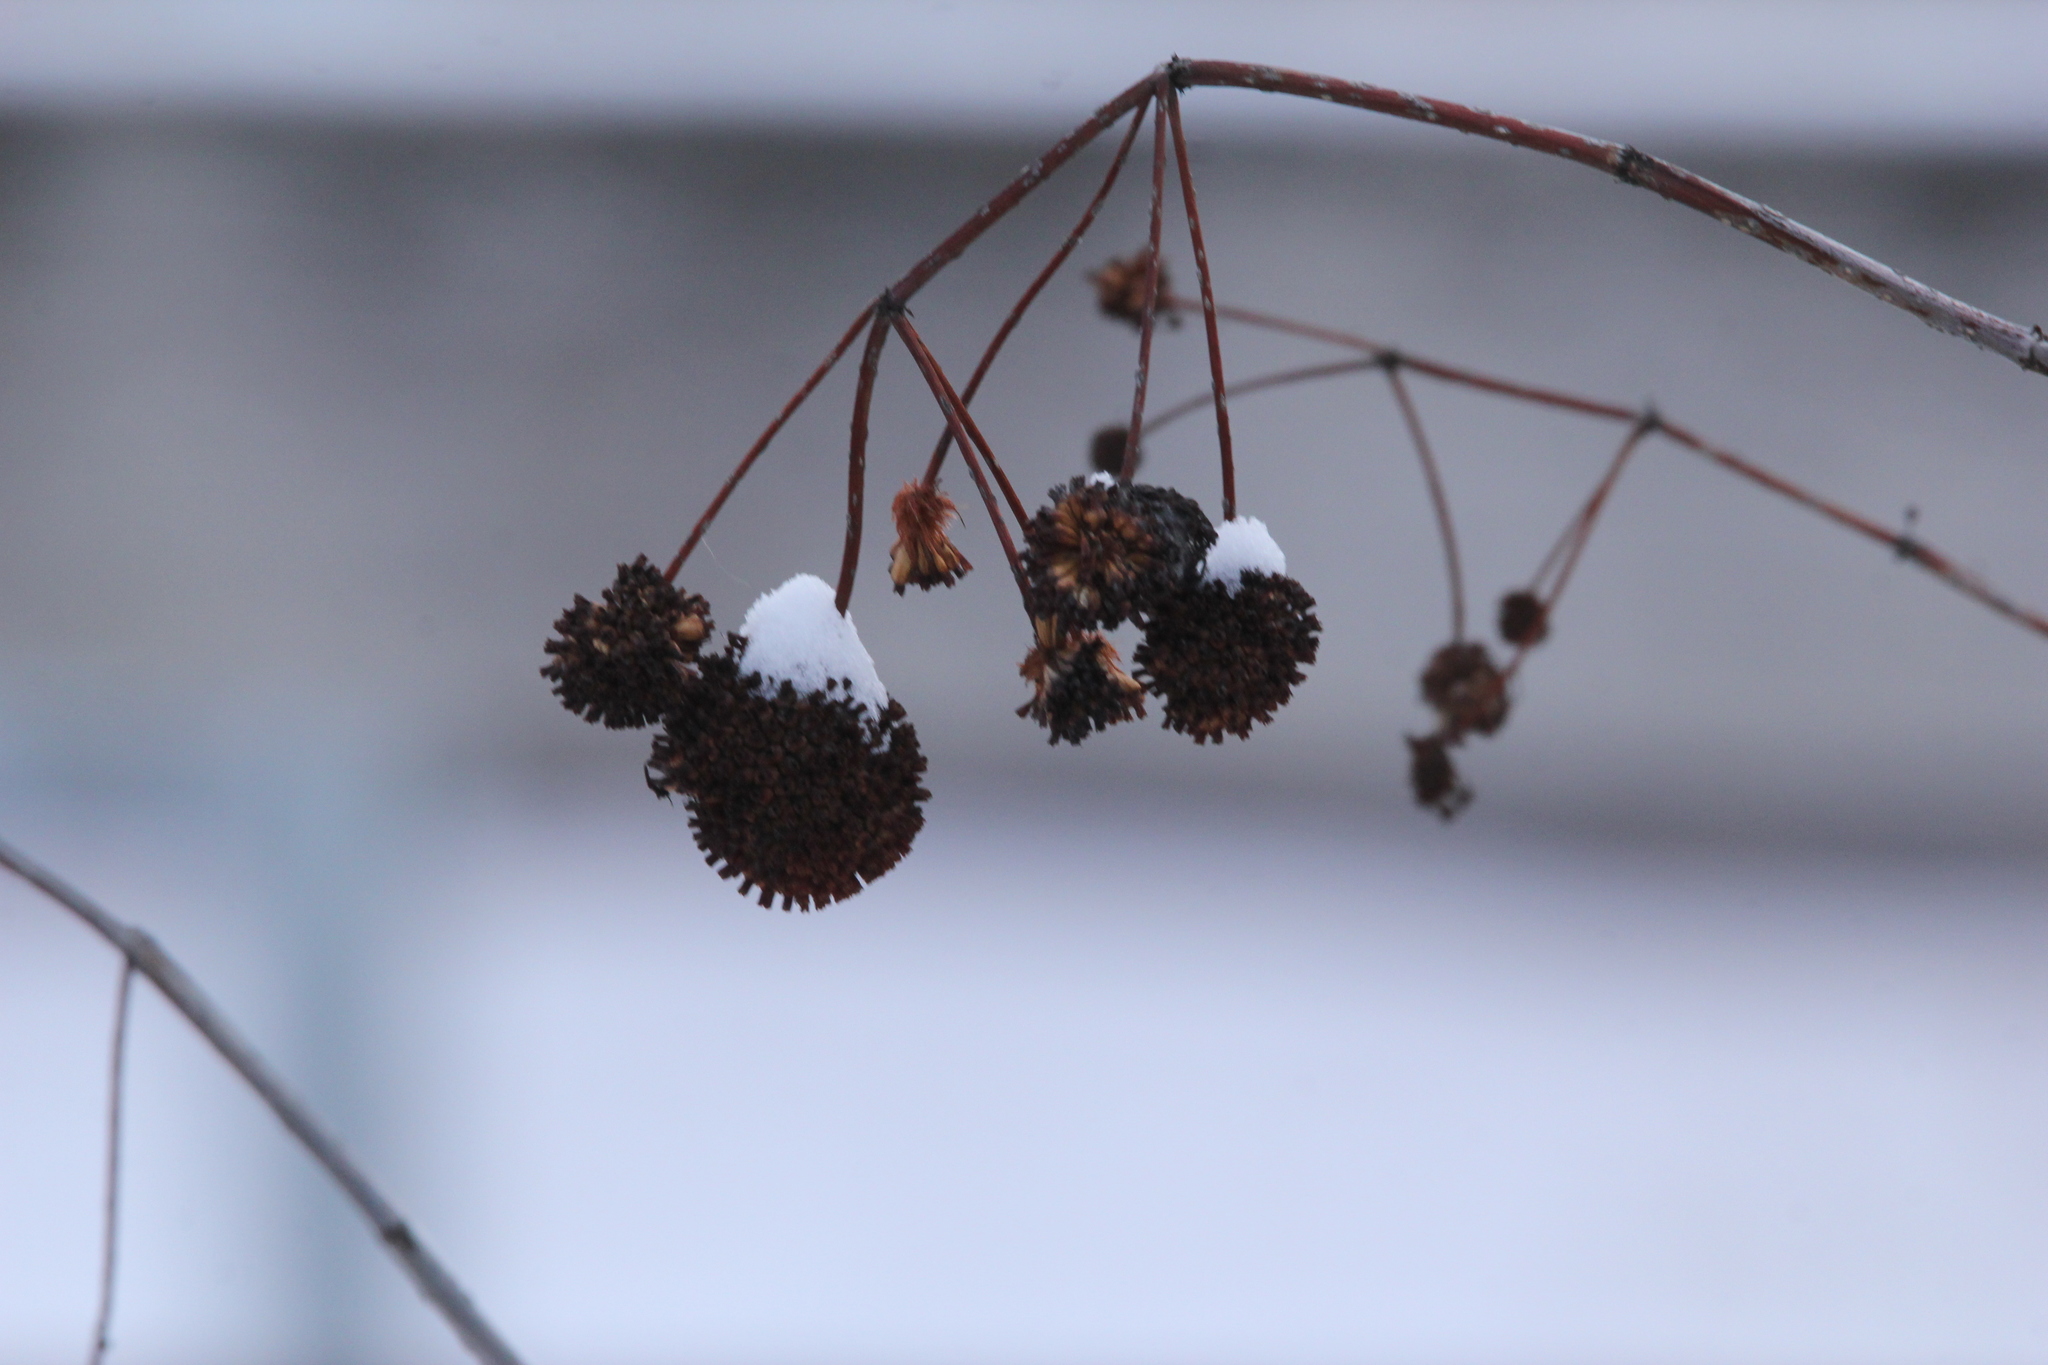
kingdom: Plantae
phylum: Tracheophyta
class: Magnoliopsida
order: Gentianales
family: Rubiaceae
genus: Cephalanthus
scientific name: Cephalanthus occidentalis
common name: Button-willow
